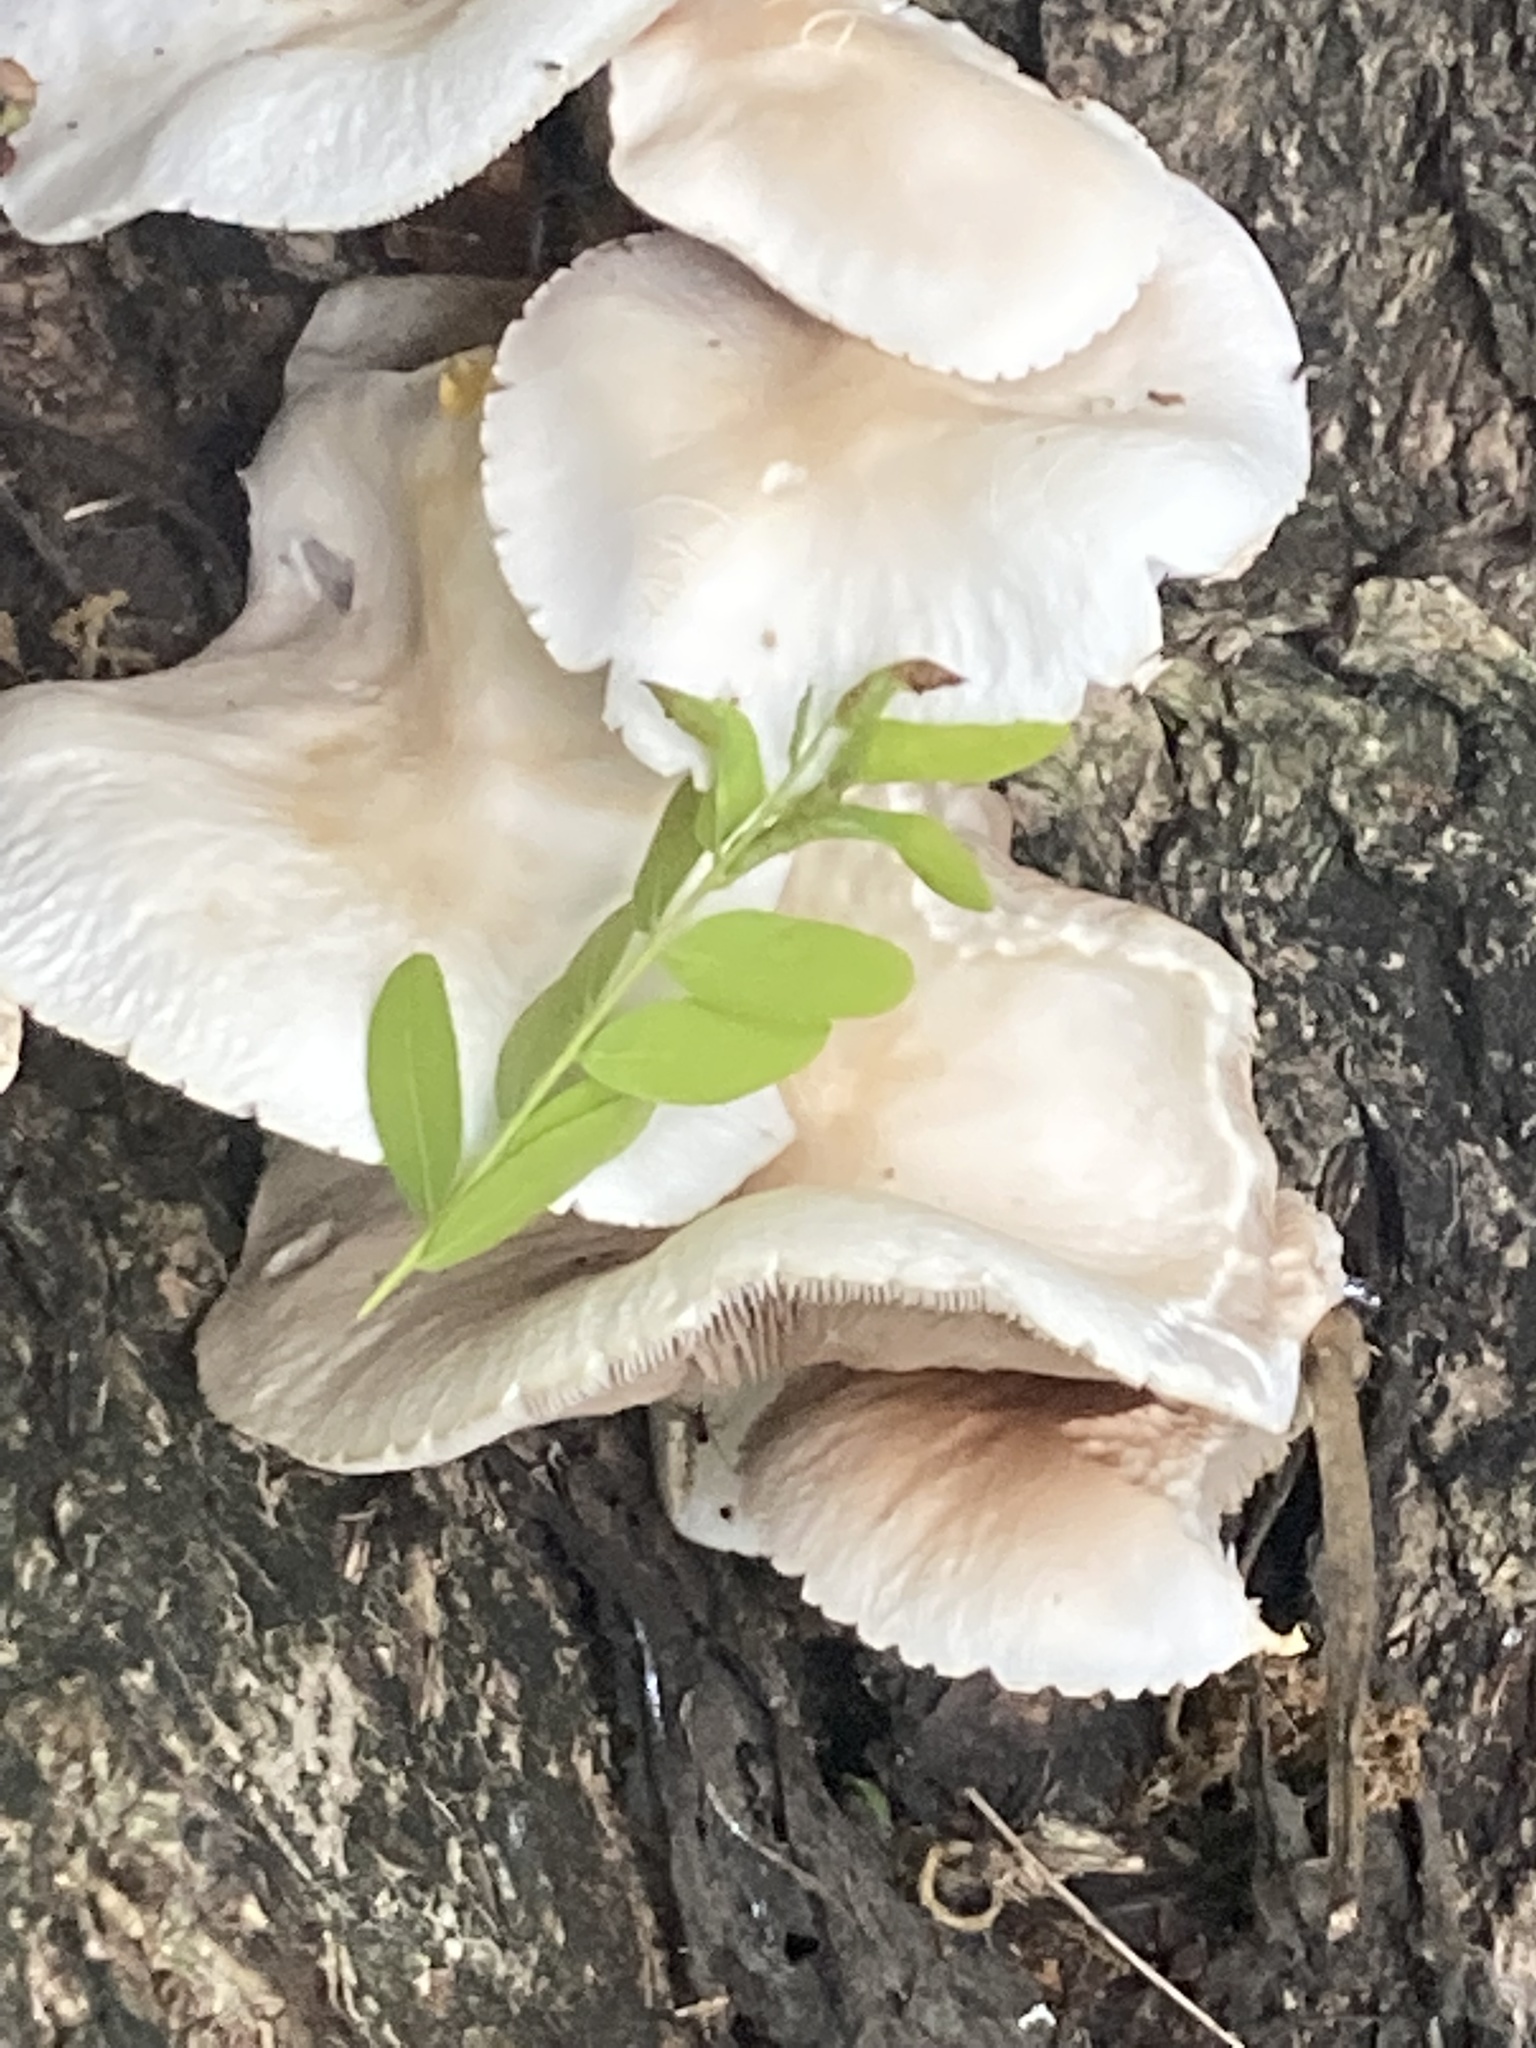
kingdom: Fungi
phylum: Basidiomycota
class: Agaricomycetes
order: Agaricales
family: Tubariaceae
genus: Cyclocybe
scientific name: Cyclocybe cylindracea
